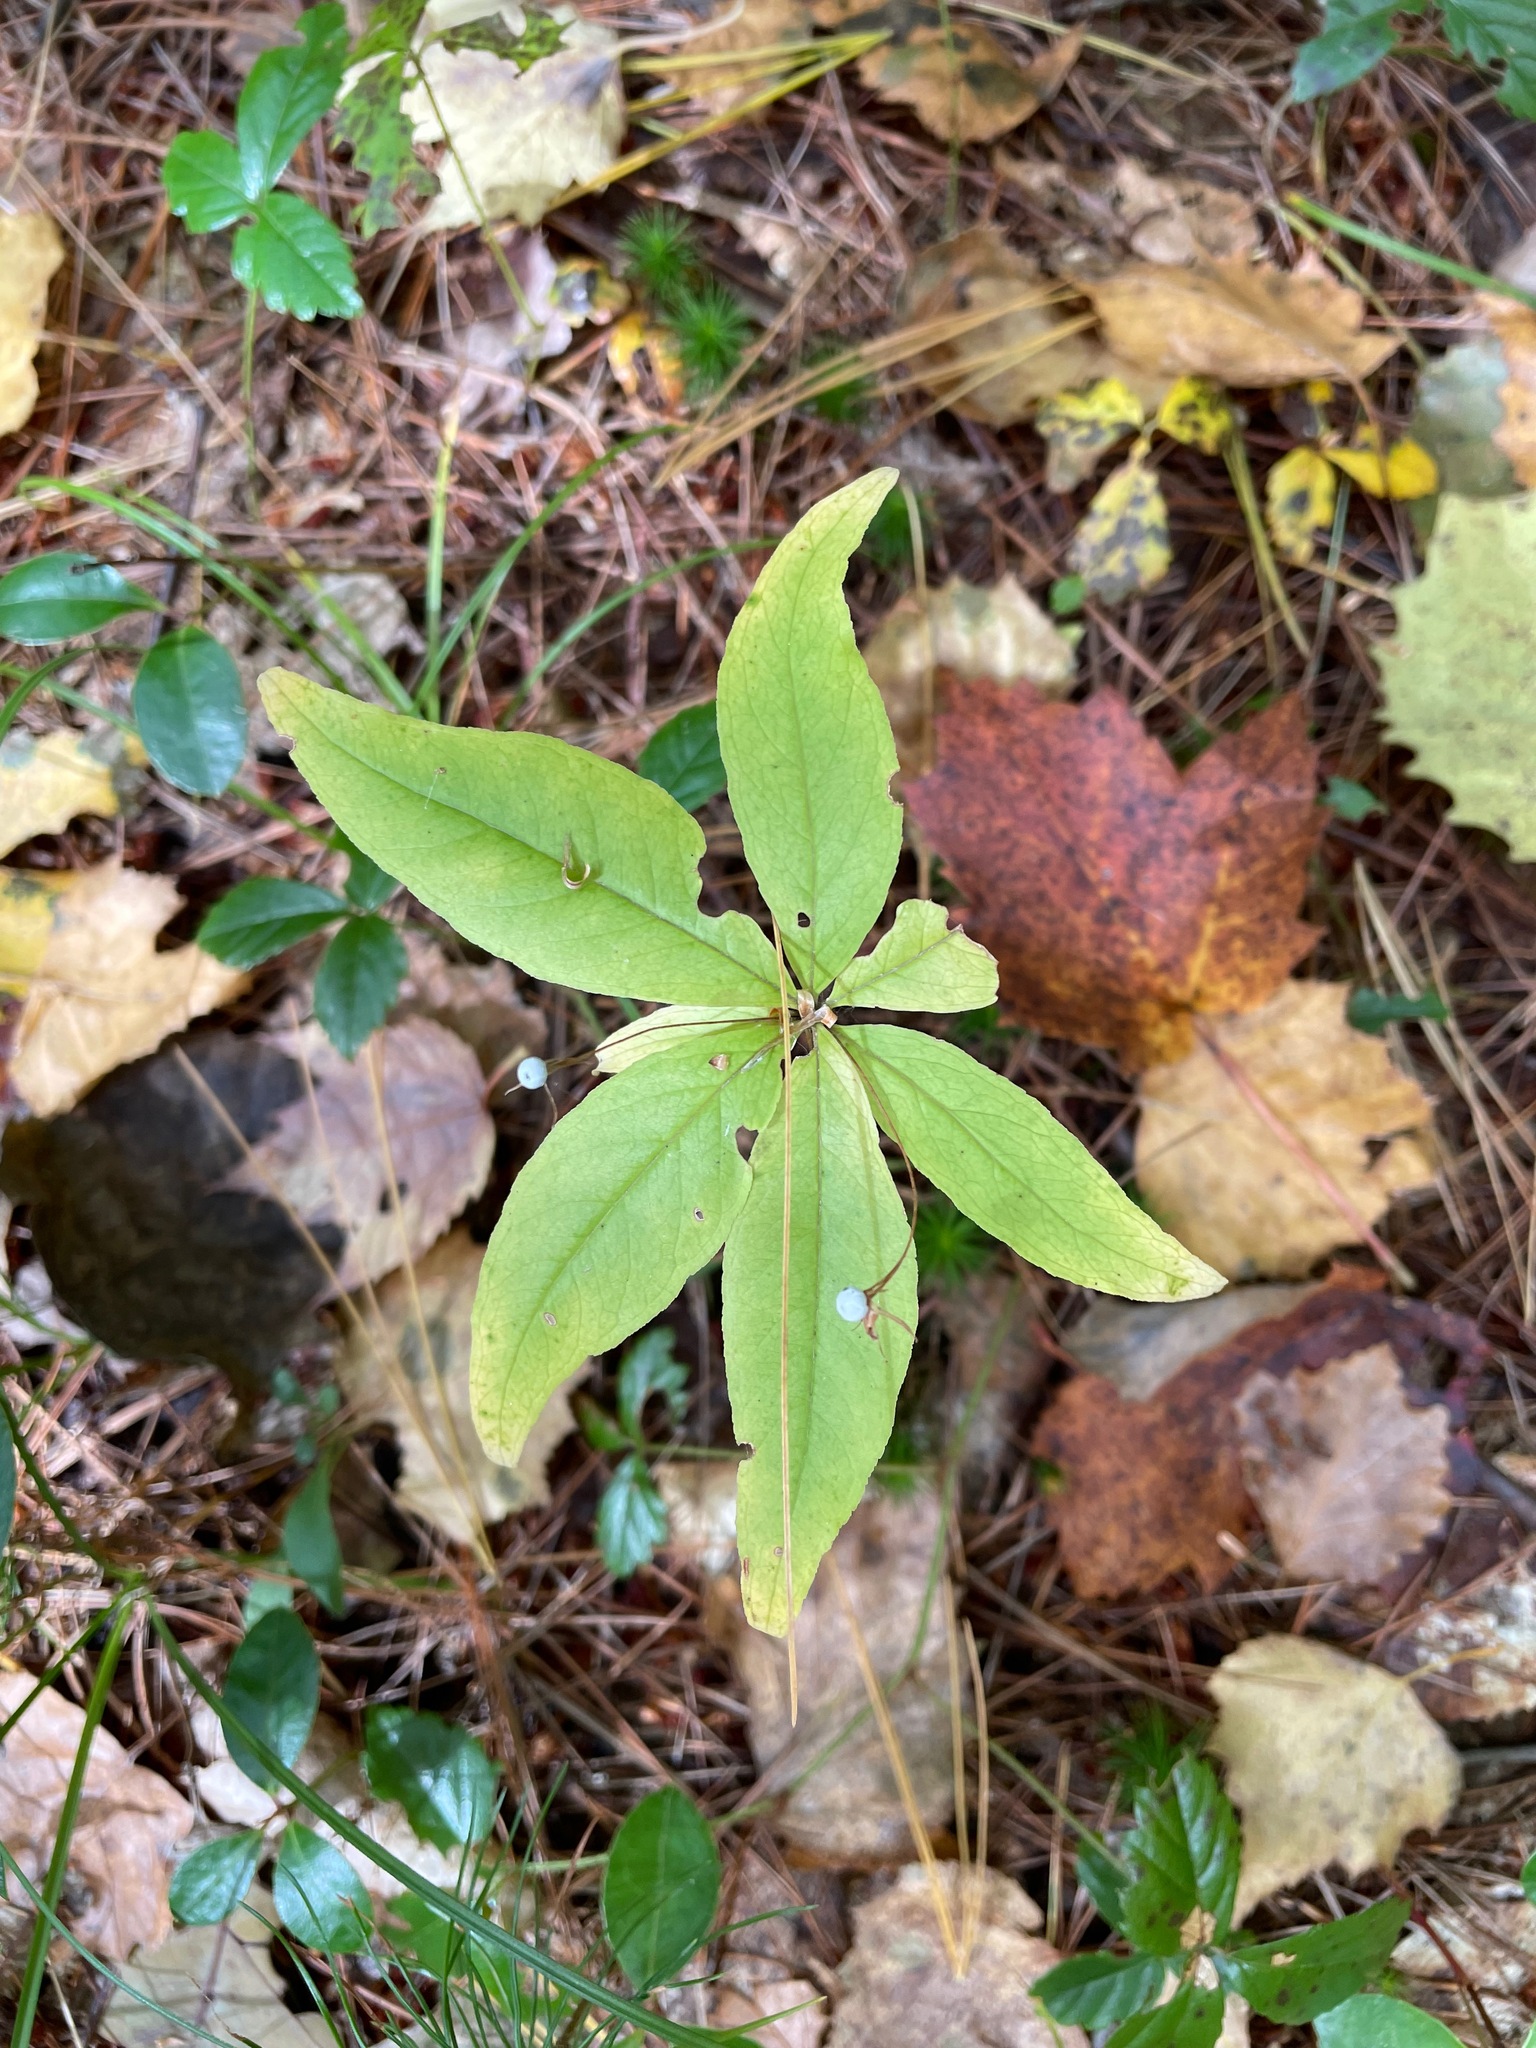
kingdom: Plantae
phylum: Tracheophyta
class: Magnoliopsida
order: Ericales
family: Primulaceae
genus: Lysimachia
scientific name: Lysimachia borealis
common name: American starflower
